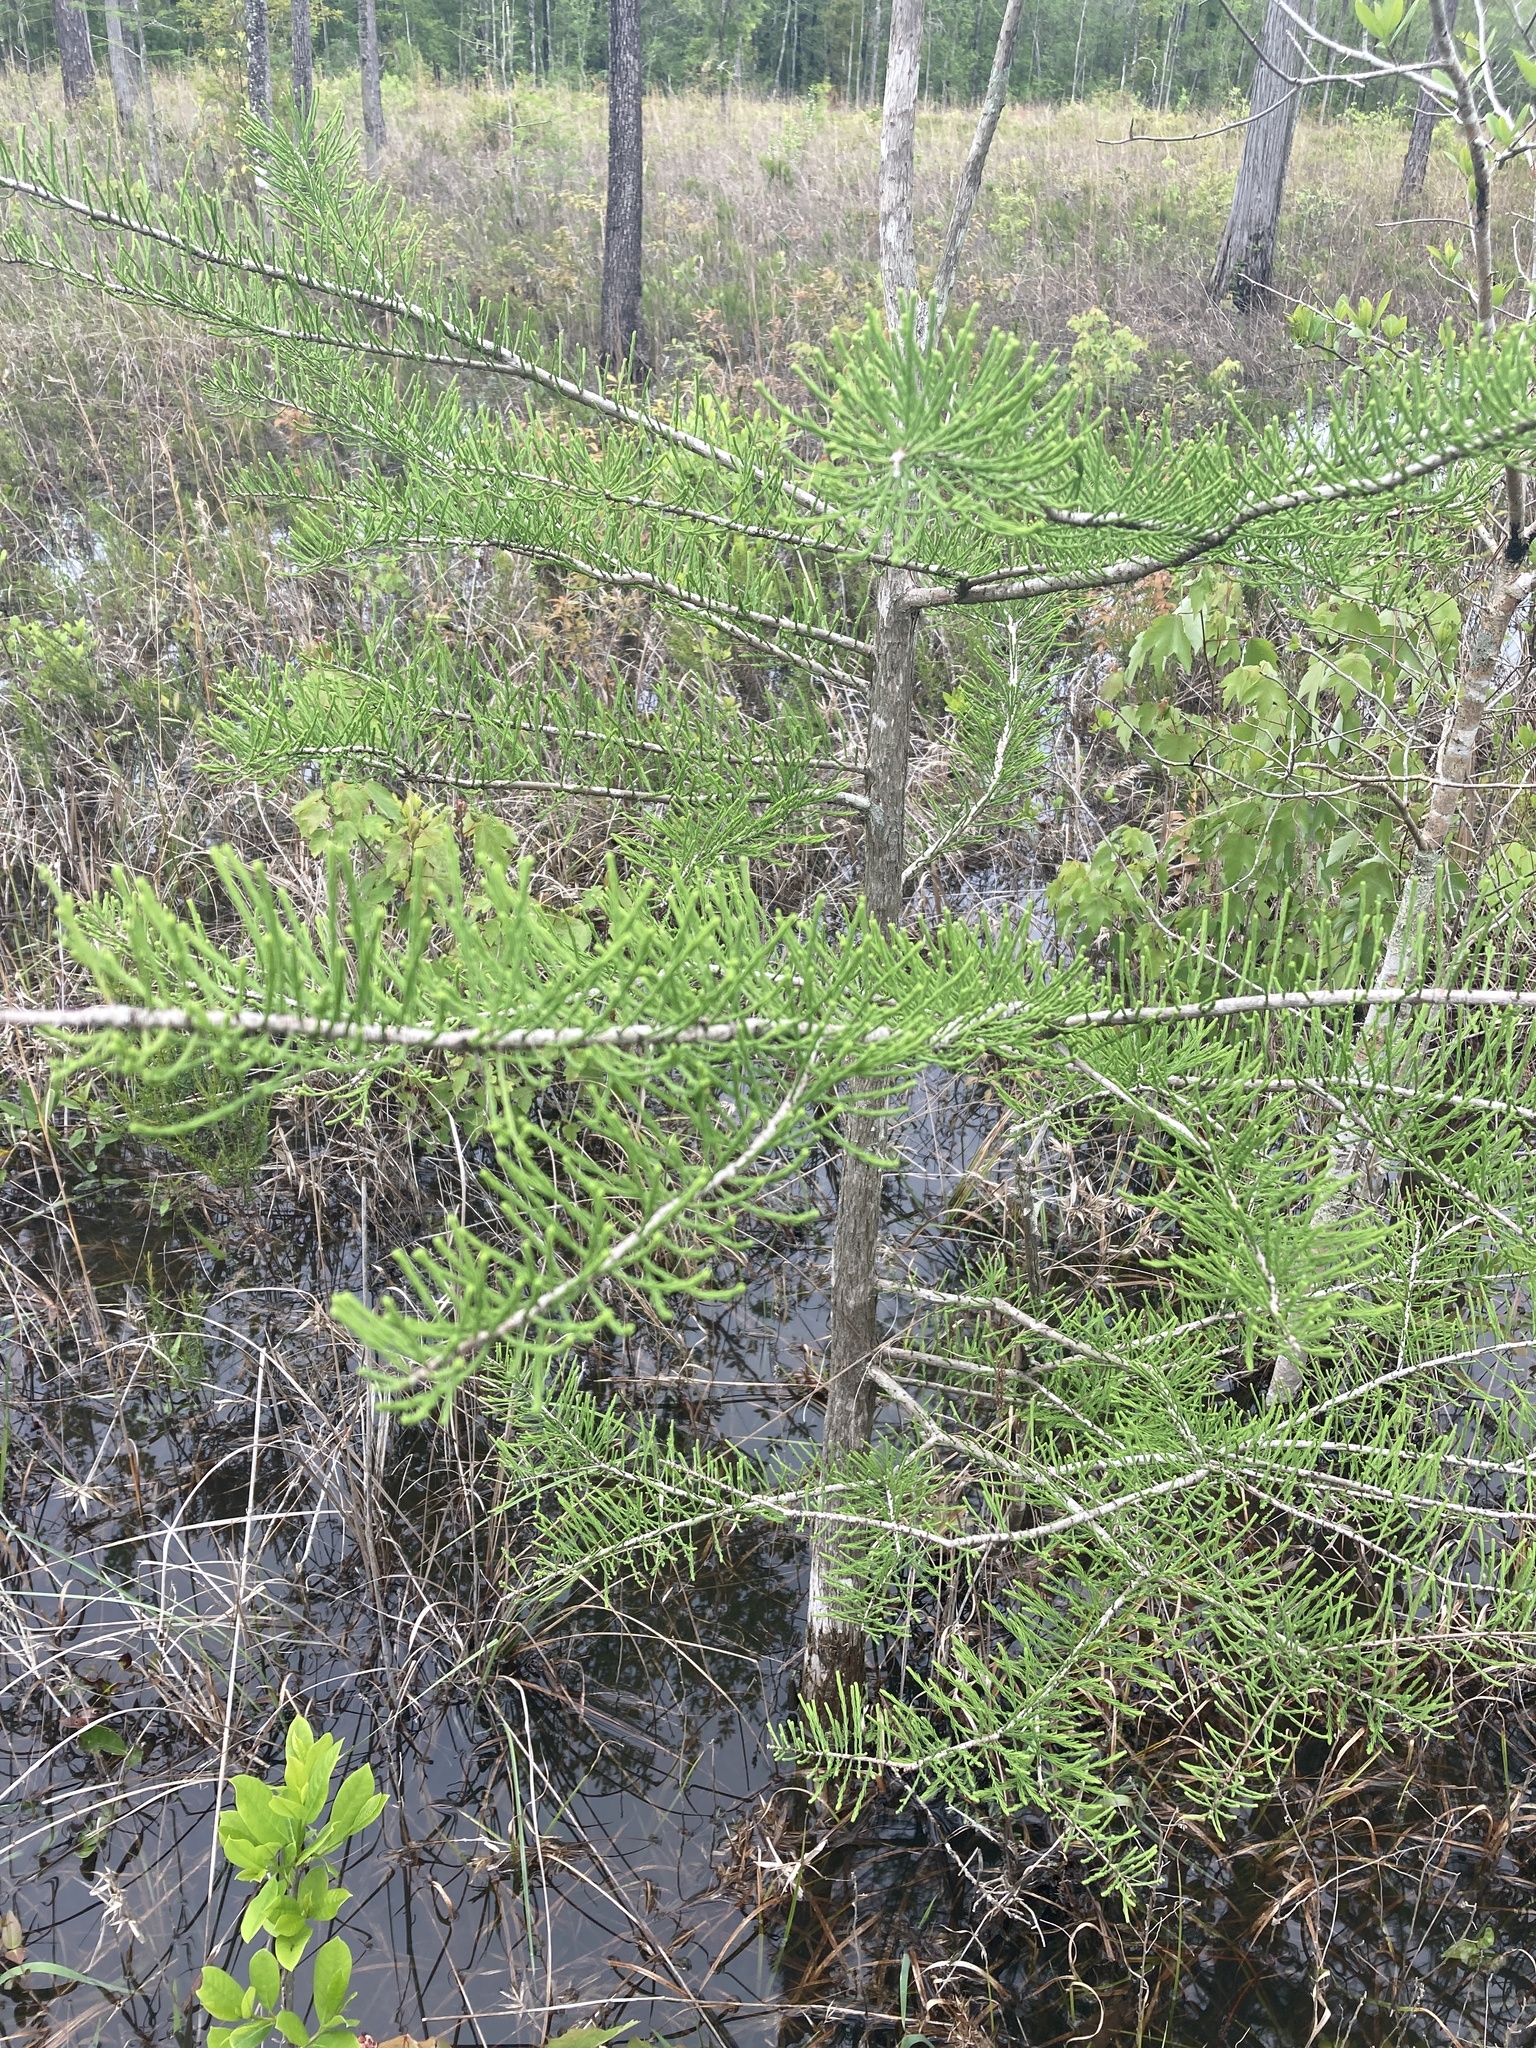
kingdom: Plantae
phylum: Tracheophyta
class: Pinopsida
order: Pinales
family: Cupressaceae
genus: Taxodium
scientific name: Taxodium distichum
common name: Bald cypress
